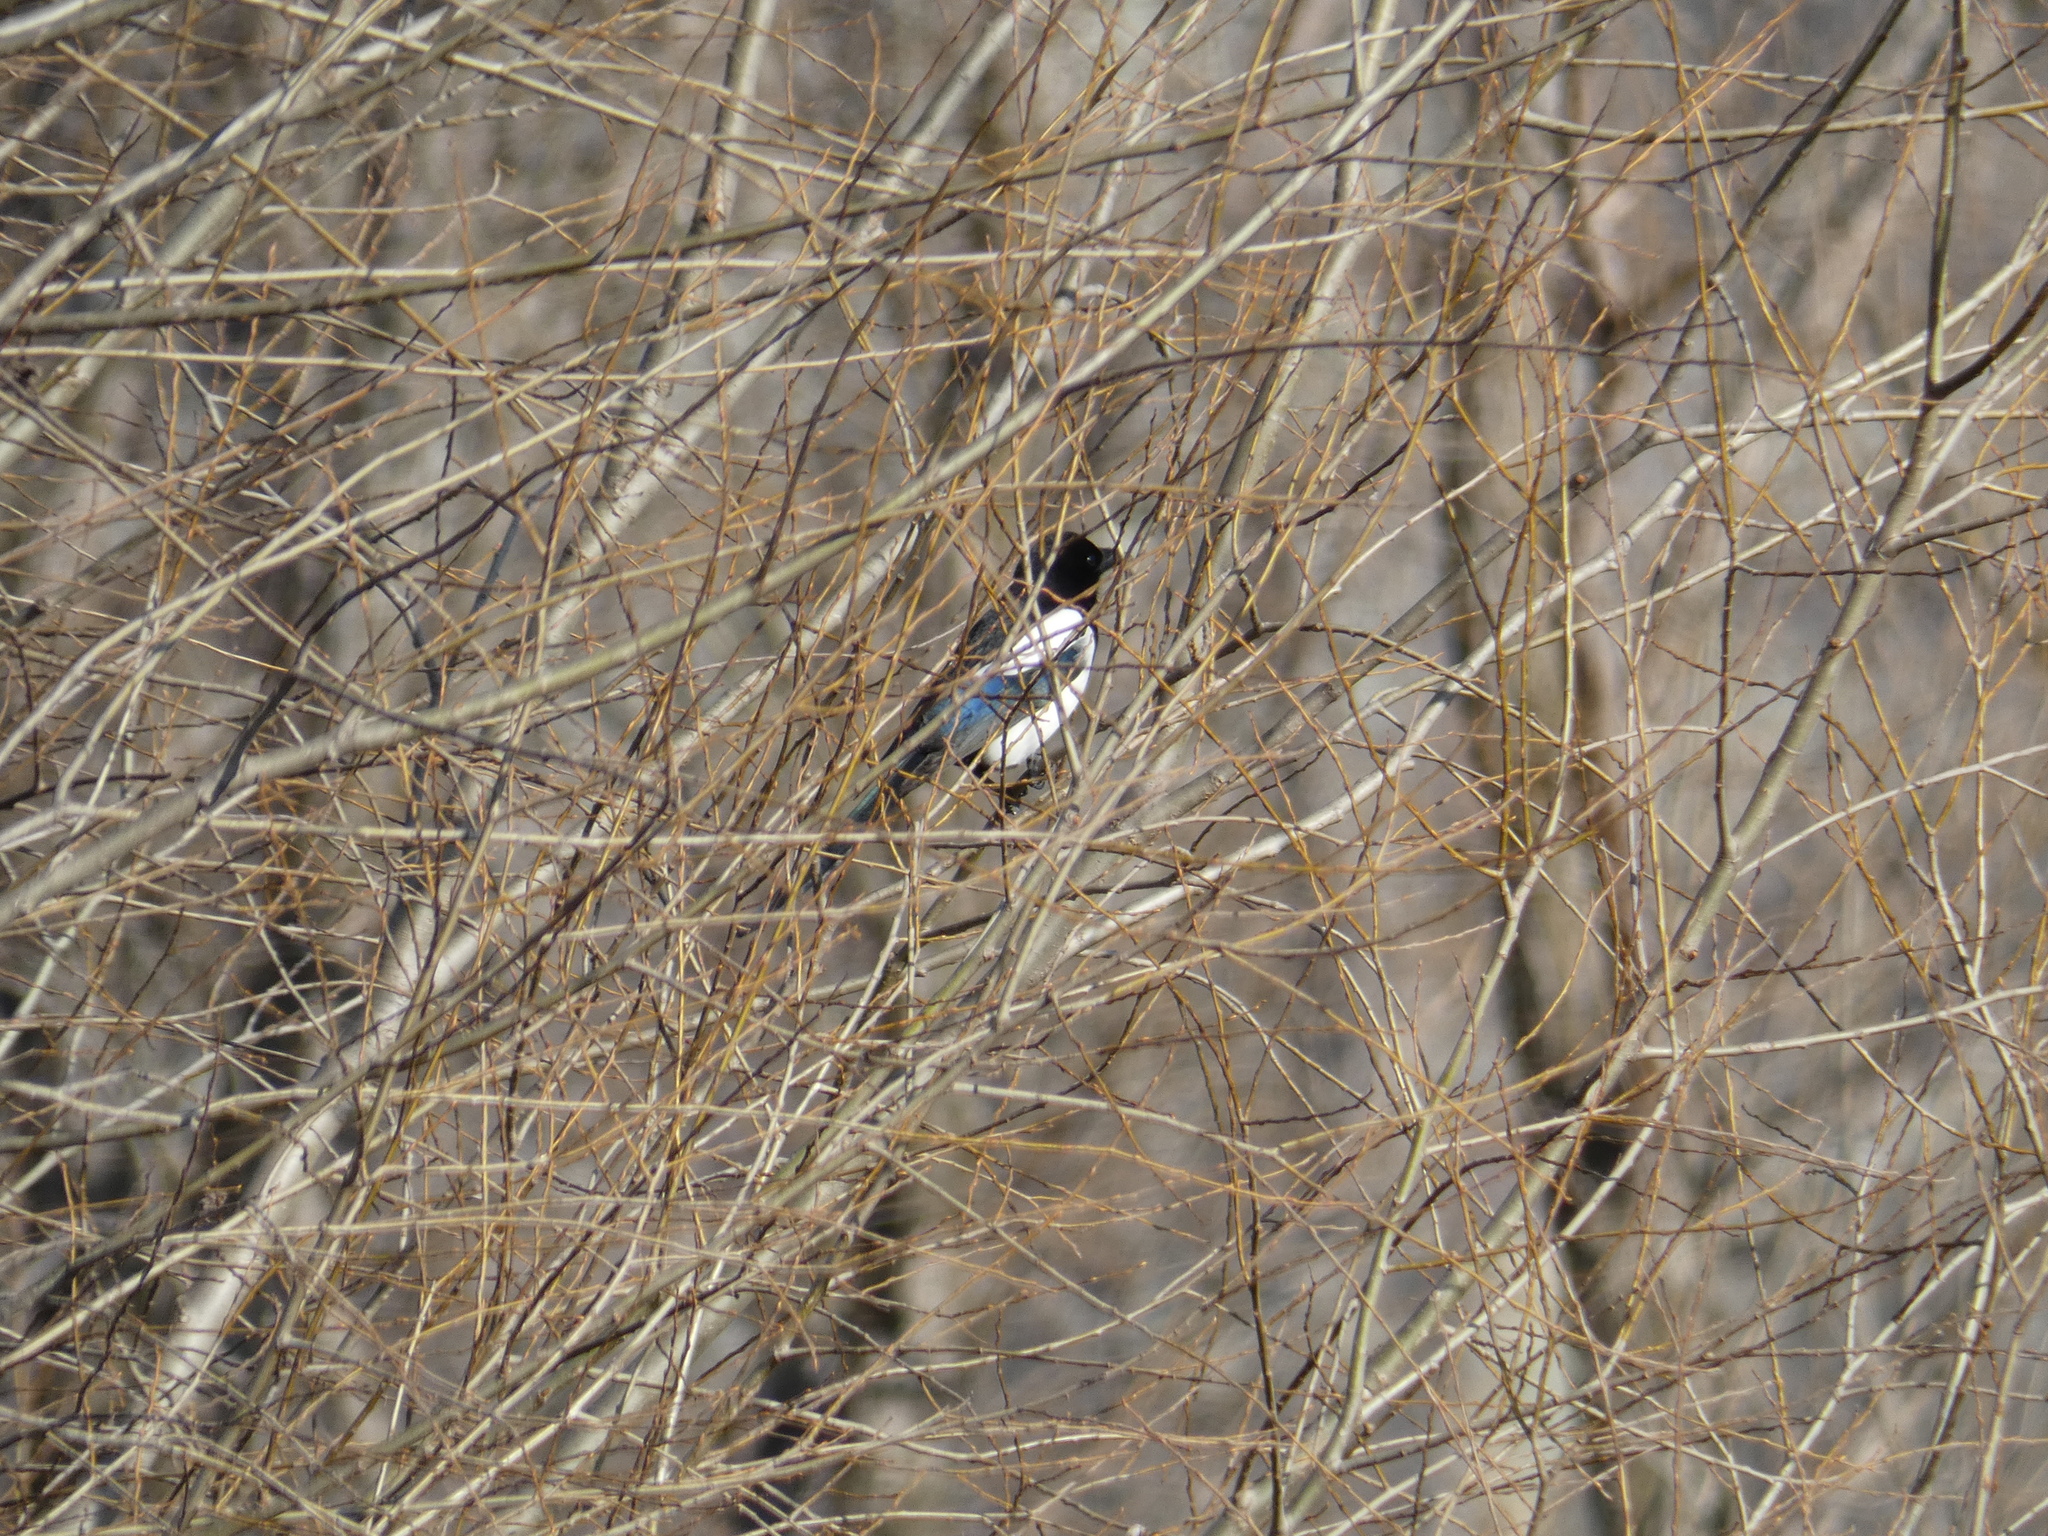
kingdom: Animalia
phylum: Chordata
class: Aves
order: Passeriformes
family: Corvidae
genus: Pica
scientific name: Pica pica
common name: Eurasian magpie
